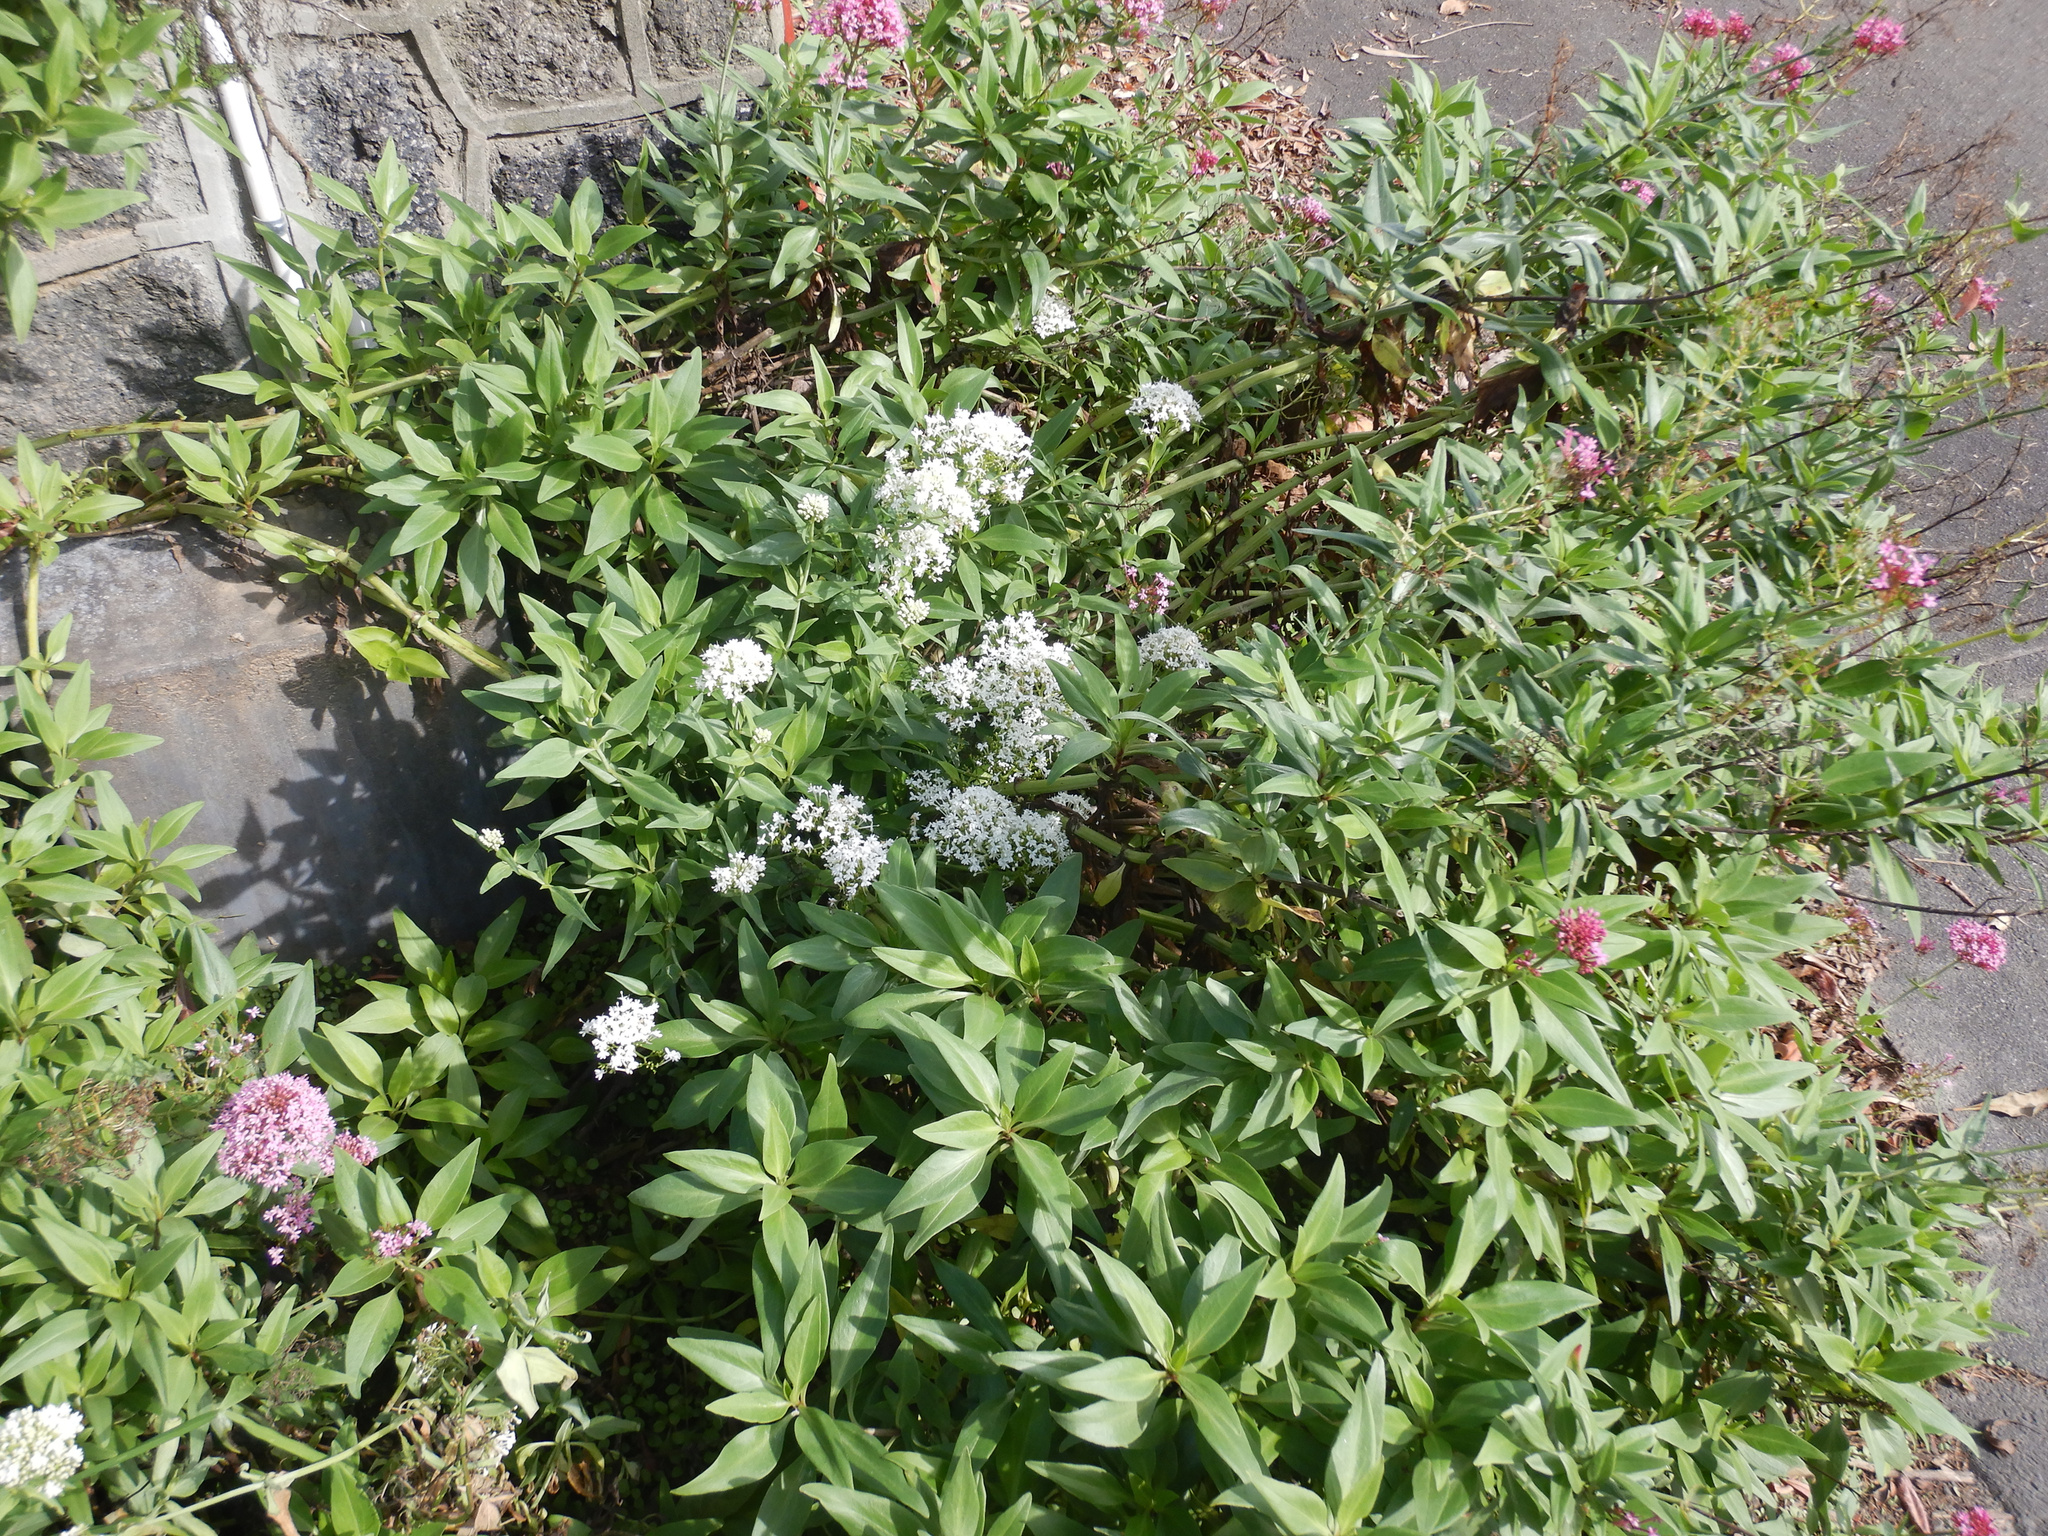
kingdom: Plantae
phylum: Tracheophyta
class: Magnoliopsida
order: Dipsacales
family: Caprifoliaceae
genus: Centranthus
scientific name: Centranthus ruber
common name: Red valerian
